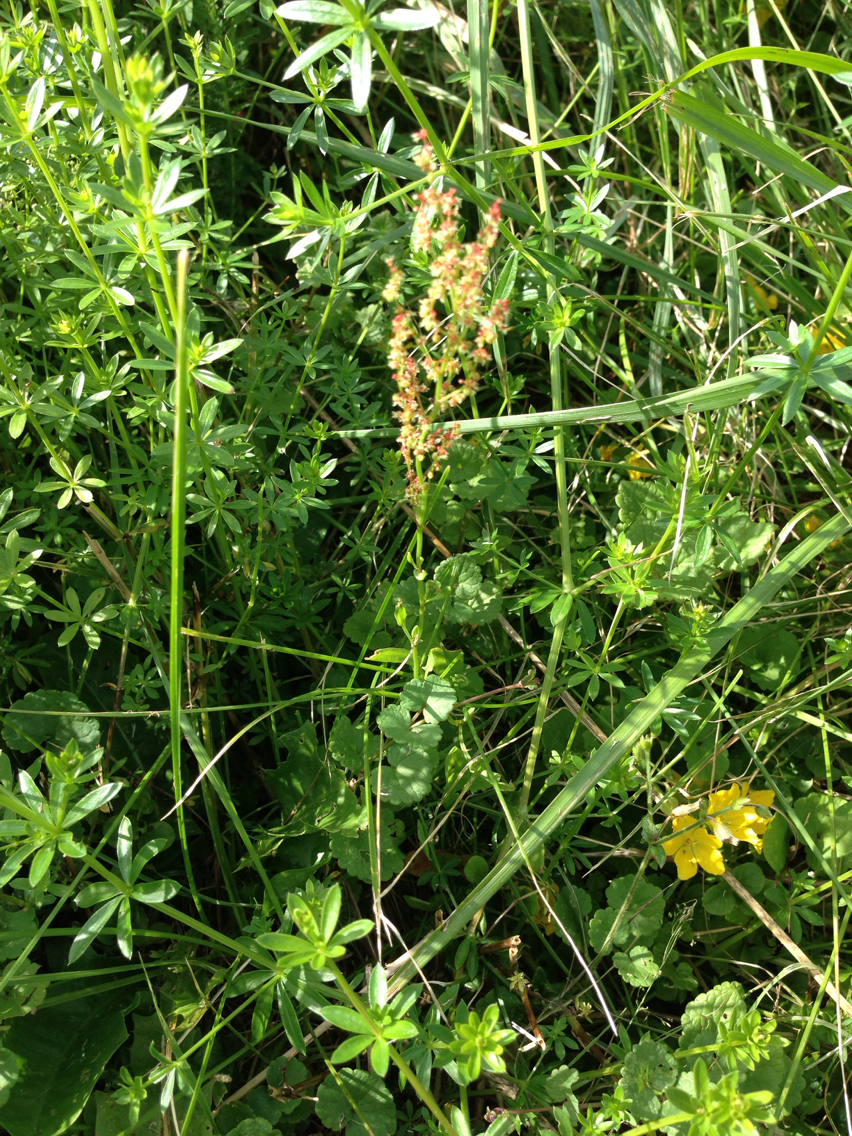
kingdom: Plantae
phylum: Tracheophyta
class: Magnoliopsida
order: Caryophyllales
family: Polygonaceae
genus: Rumex
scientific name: Rumex acetosella
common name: Common sheep sorrel
